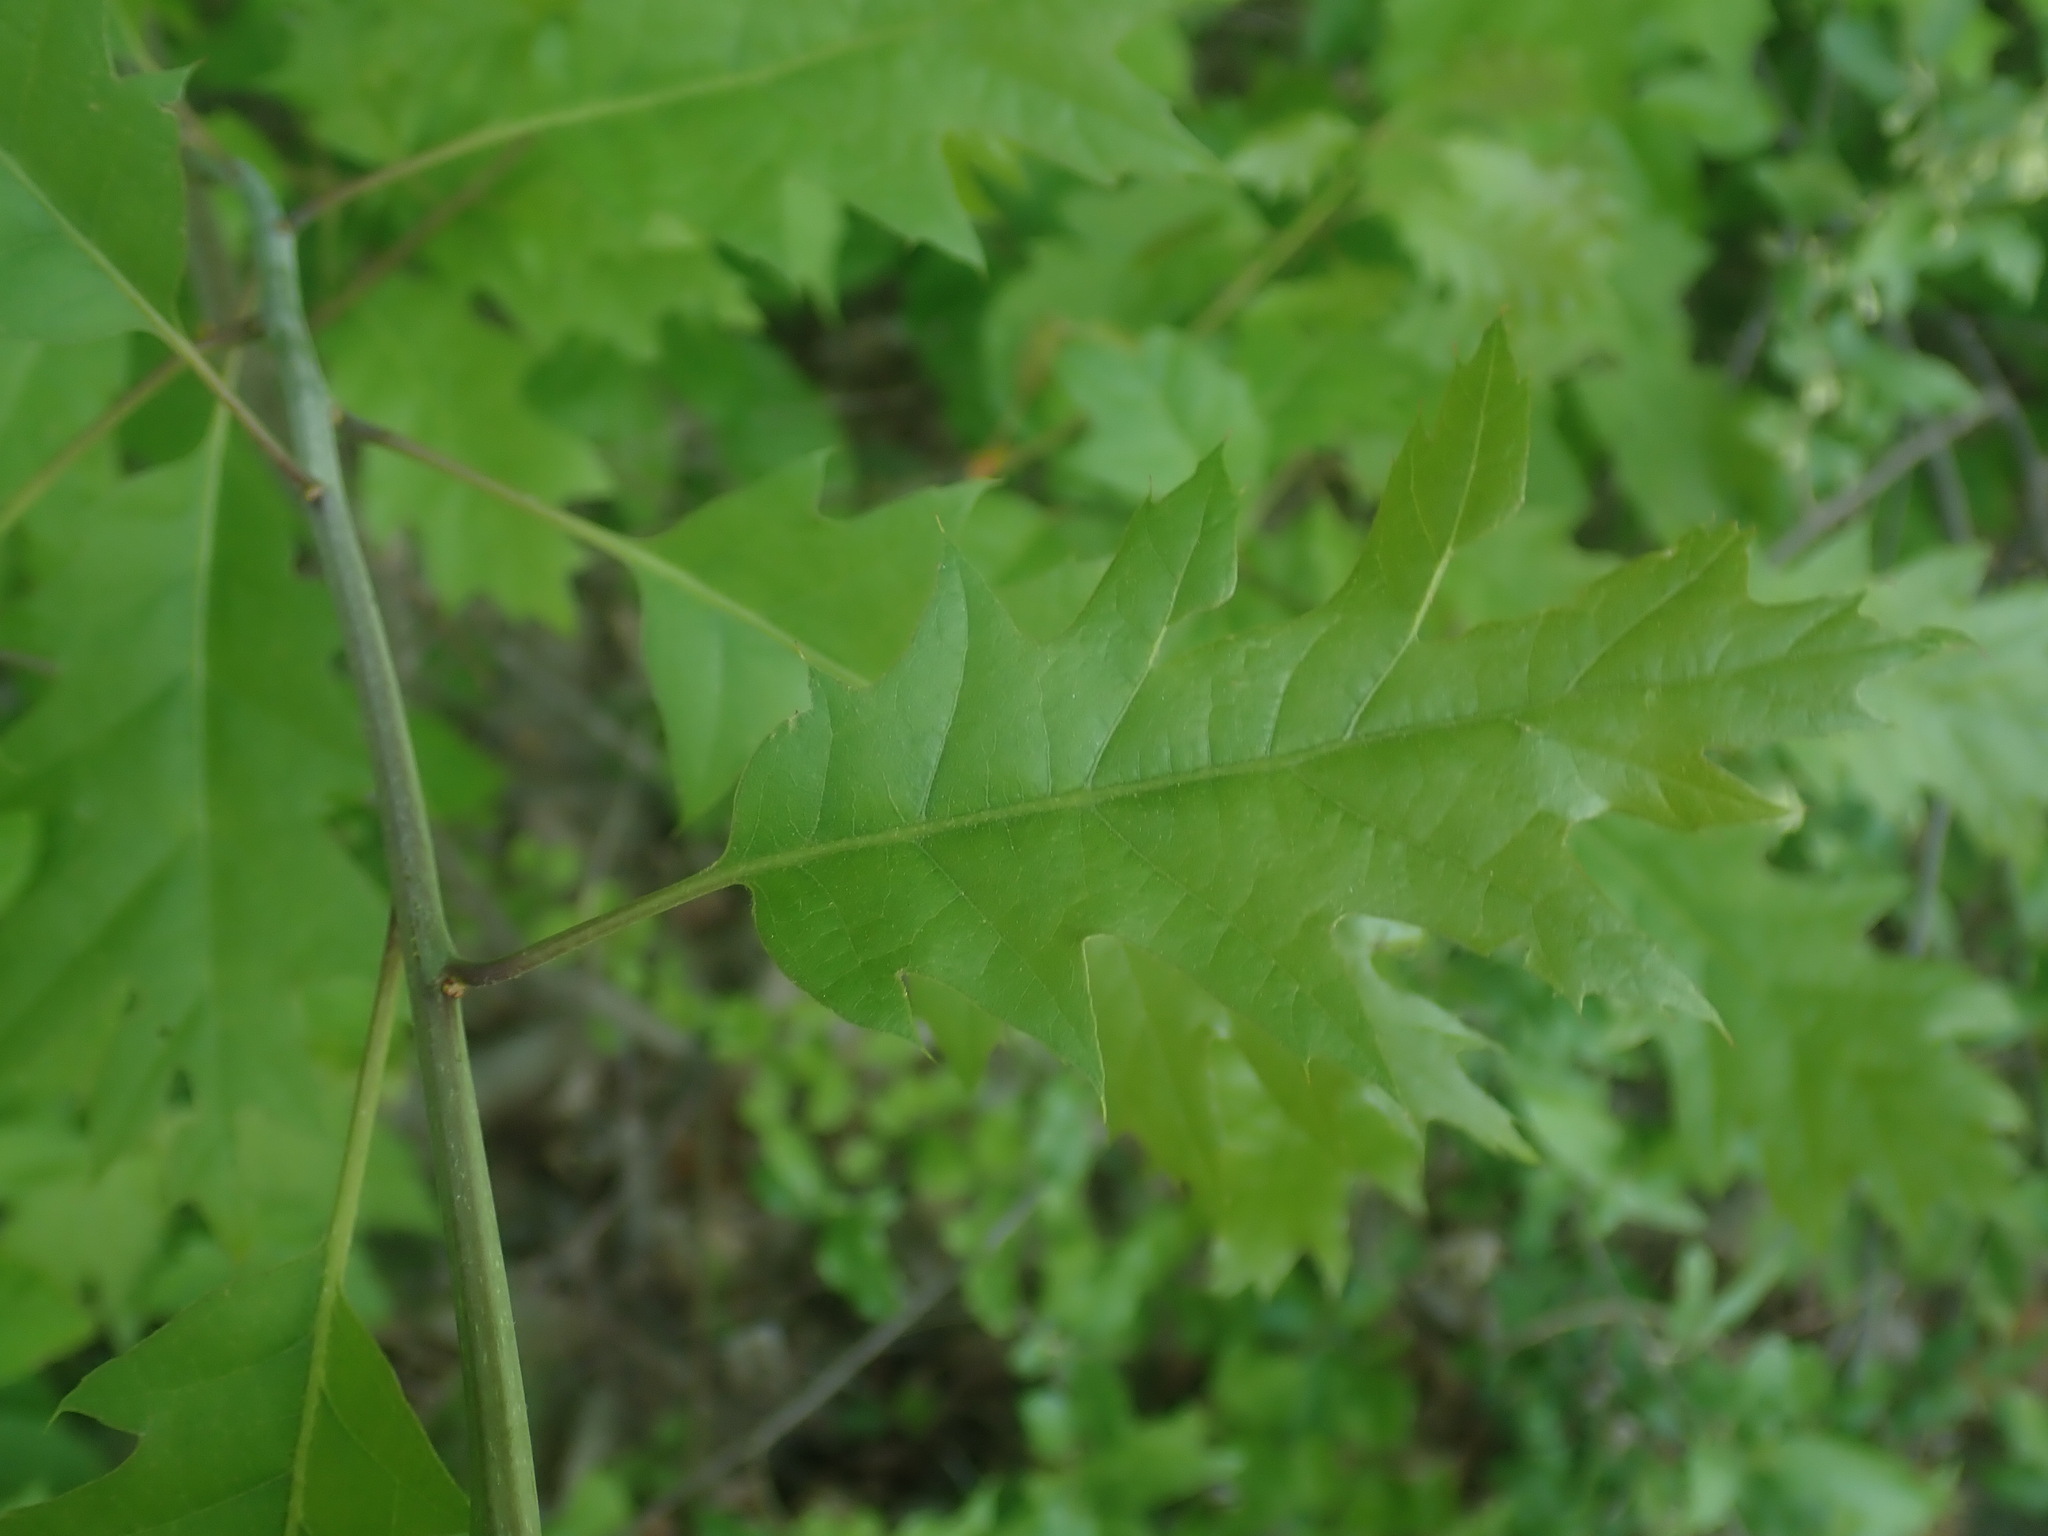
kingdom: Plantae
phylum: Tracheophyta
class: Magnoliopsida
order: Fagales
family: Fagaceae
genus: Quercus
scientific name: Quercus
